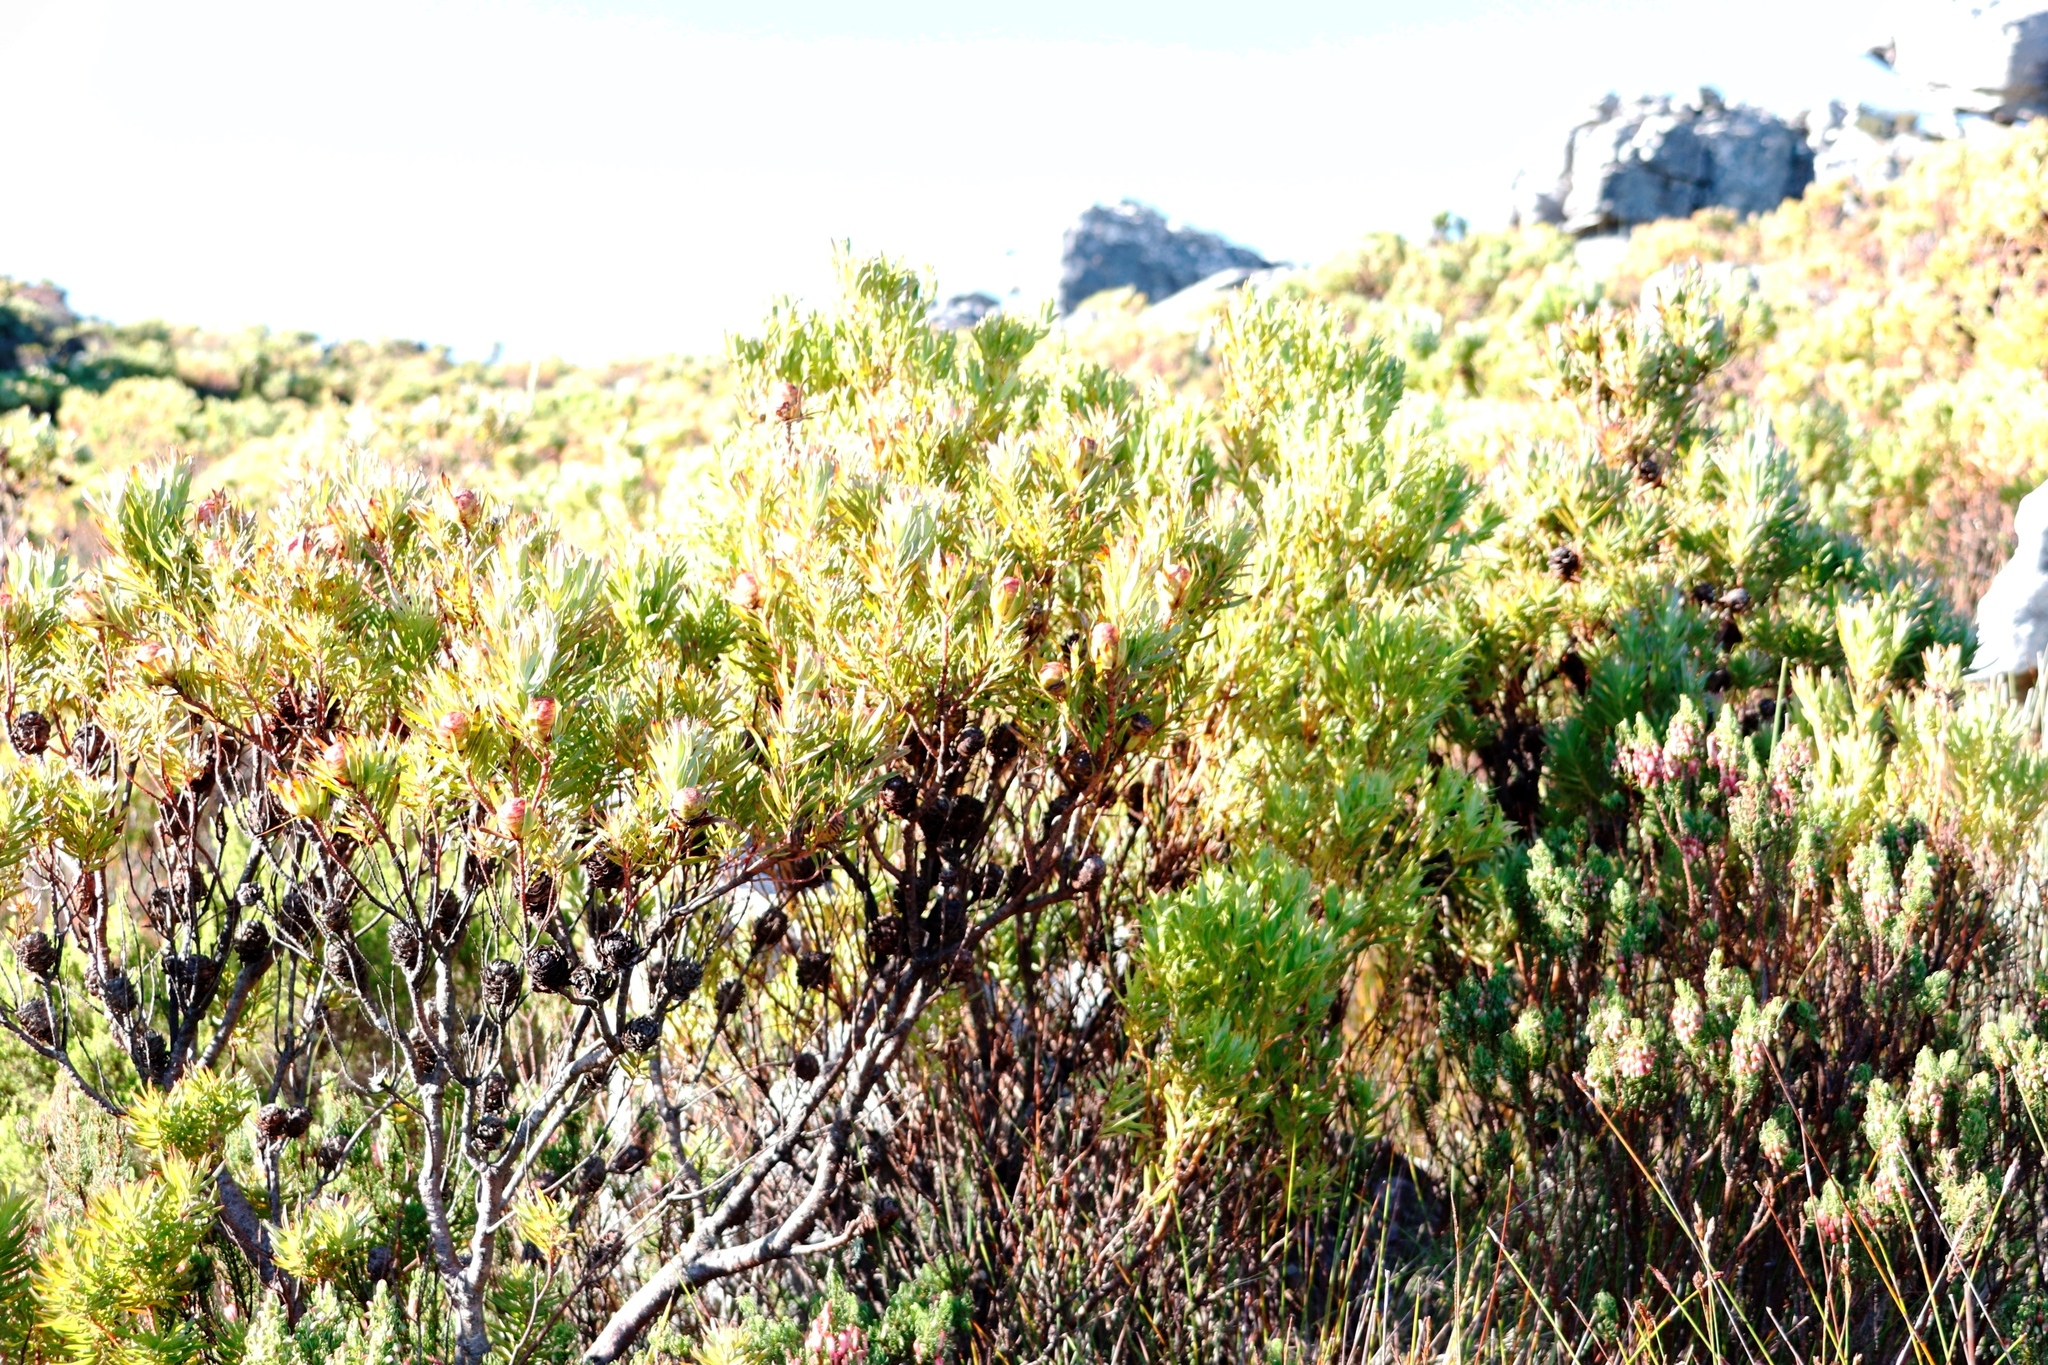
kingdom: Plantae
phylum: Tracheophyta
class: Magnoliopsida
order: Proteales
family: Proteaceae
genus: Leucadendron
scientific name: Leucadendron xanthoconus
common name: Sickle-leaf conebush
